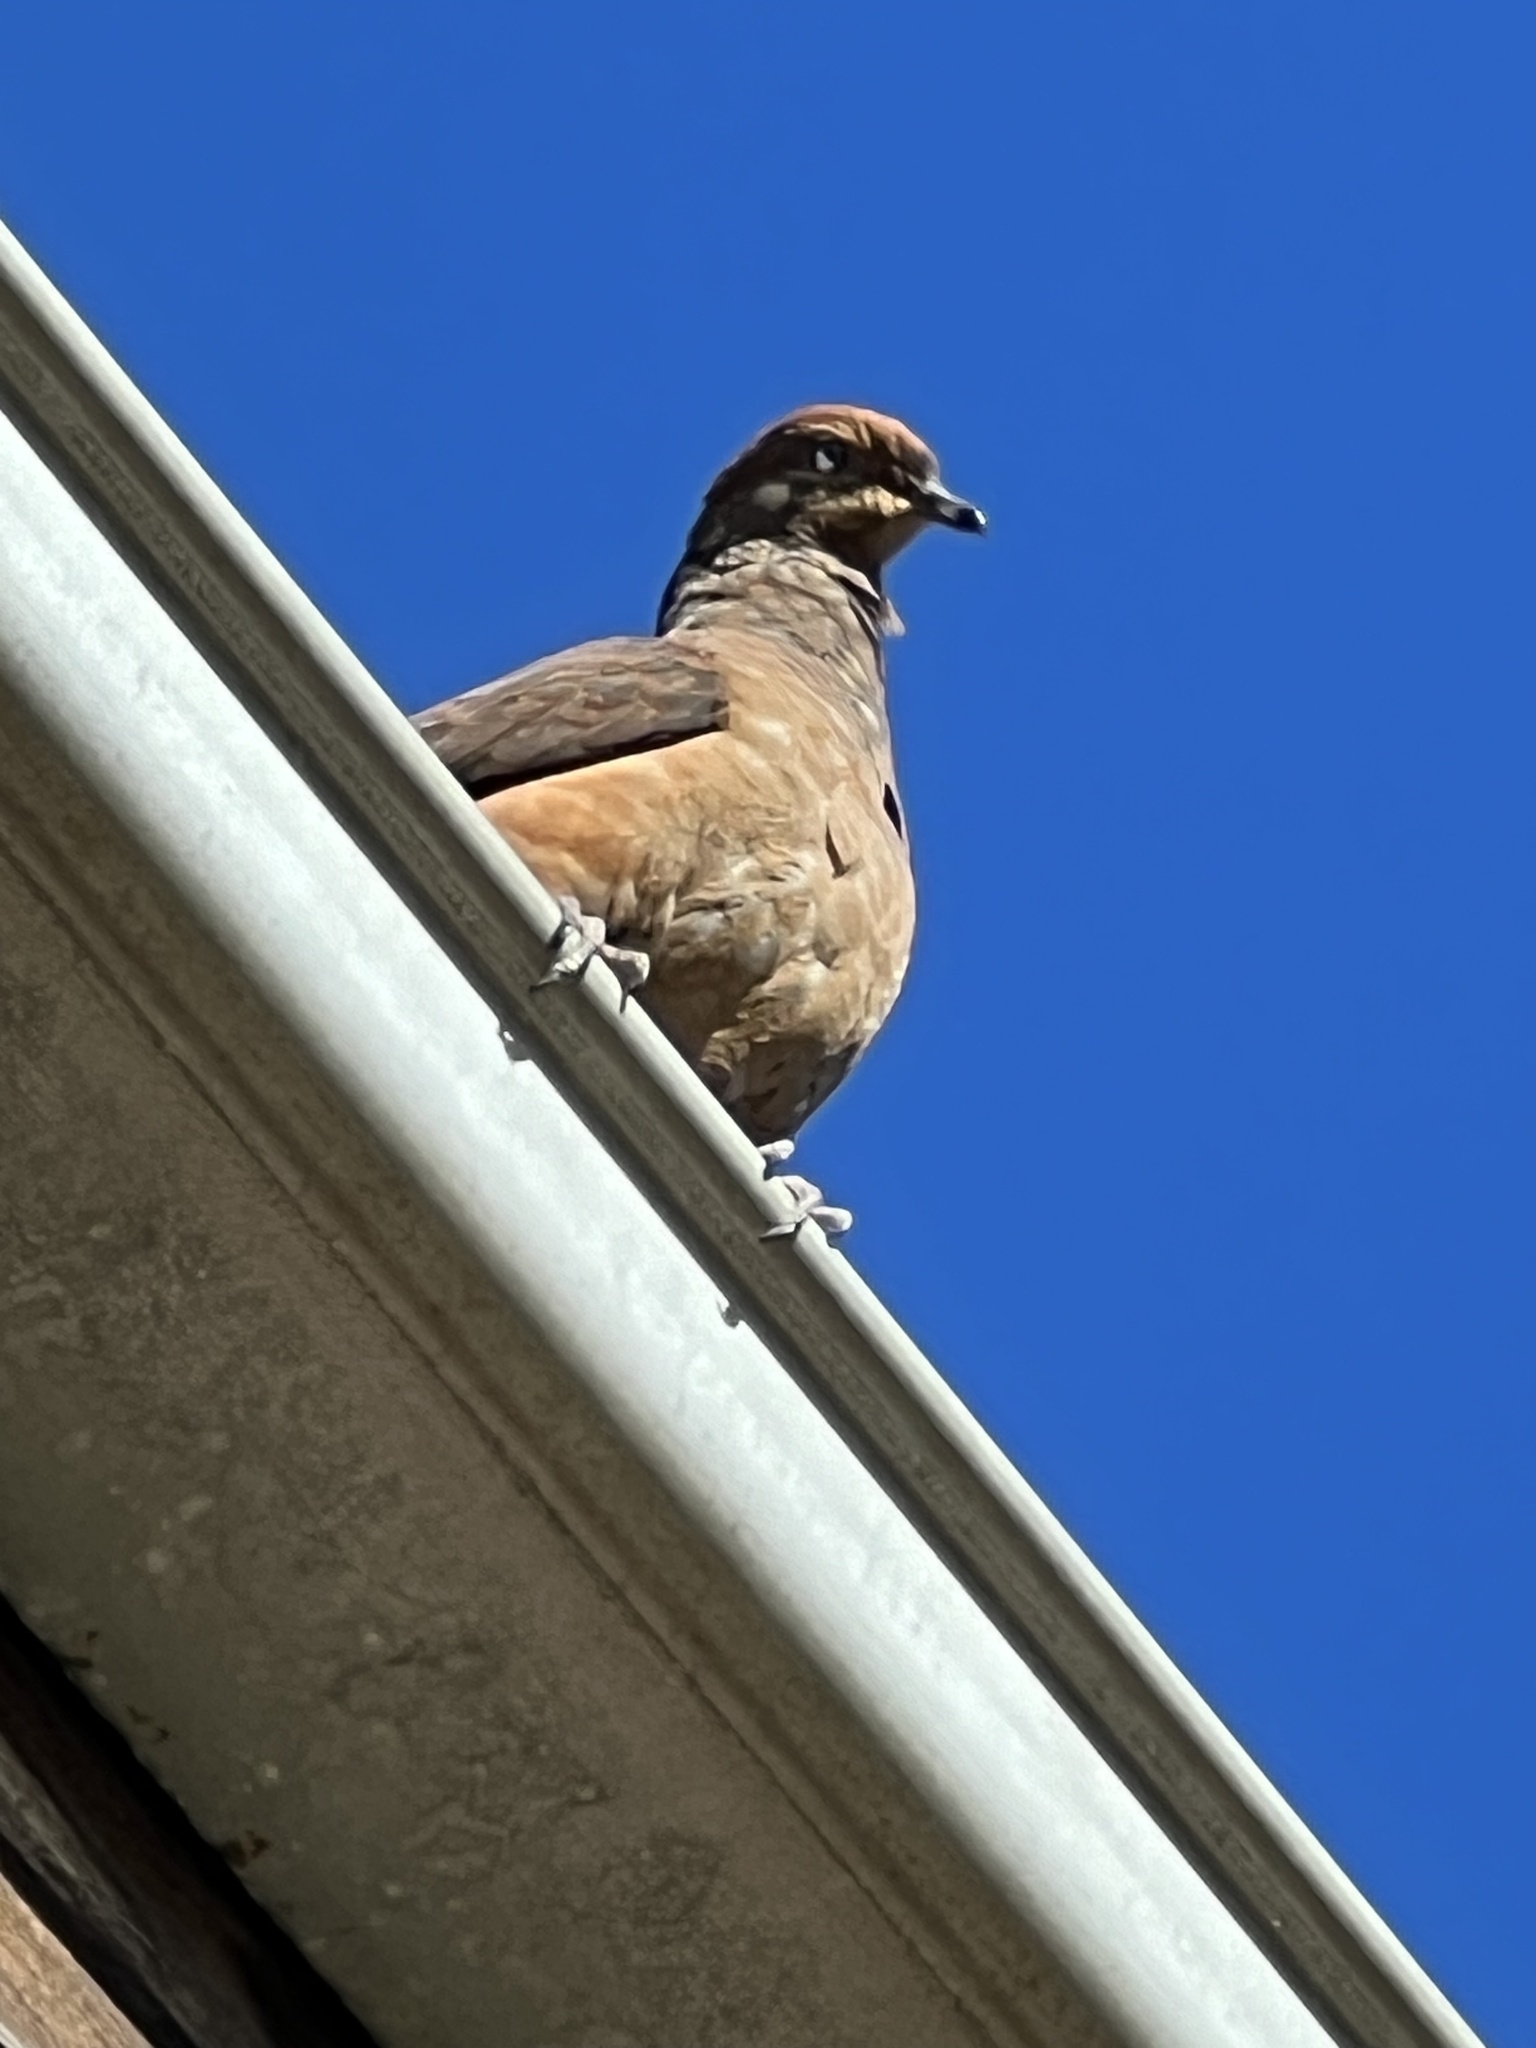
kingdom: Animalia
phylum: Chordata
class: Aves
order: Columbiformes
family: Columbidae
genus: Macropygia
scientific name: Macropygia phasianella
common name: Brown cuckoo-dove
